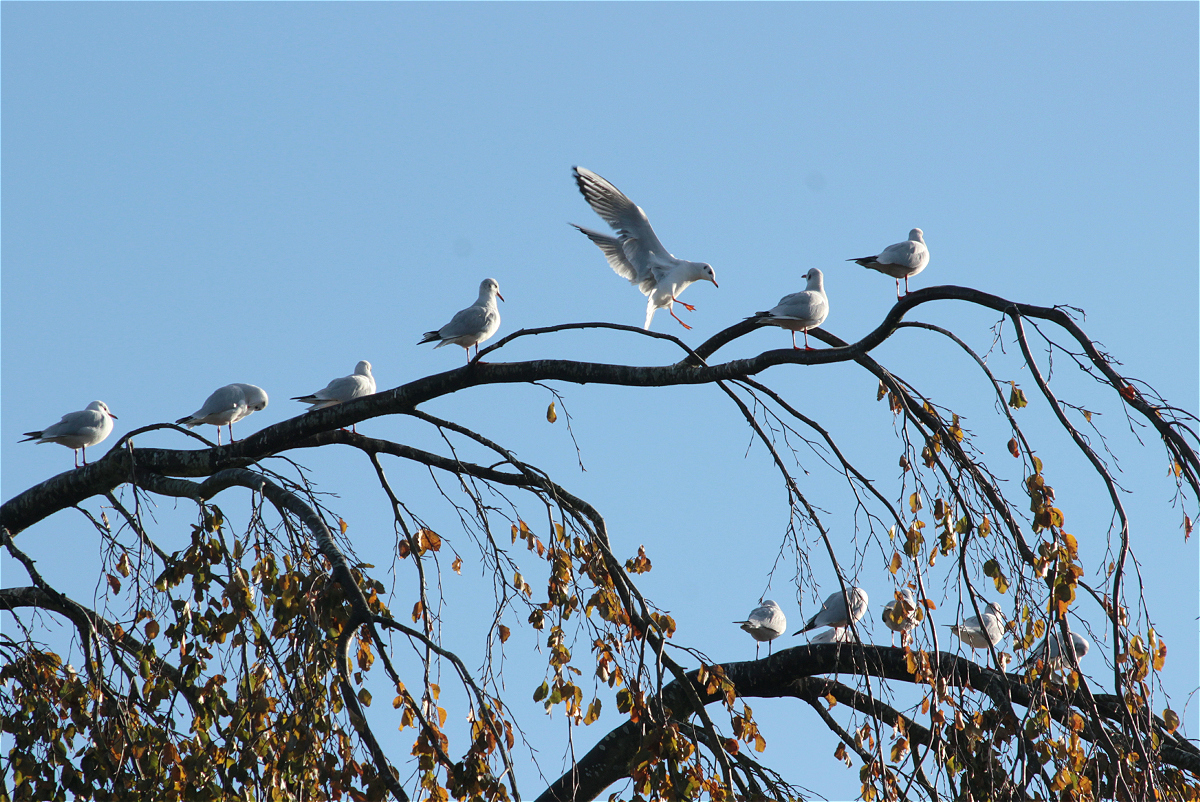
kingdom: Animalia
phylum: Chordata
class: Aves
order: Charadriiformes
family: Laridae
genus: Chroicocephalus
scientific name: Chroicocephalus ridibundus
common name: Black-headed gull
